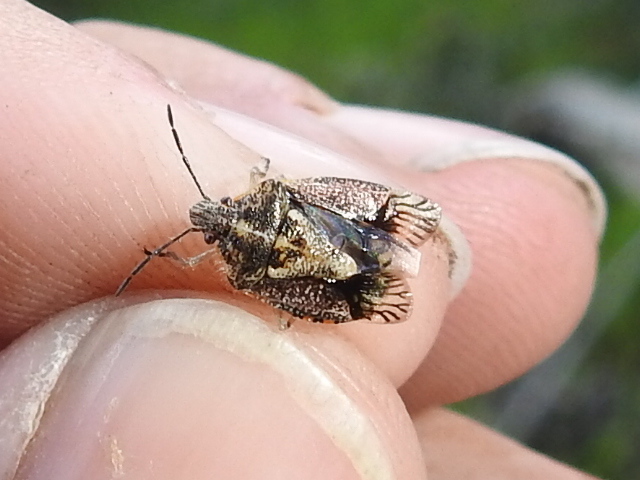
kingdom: Animalia
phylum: Arthropoda
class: Insecta
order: Hemiptera
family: Pentatomidae
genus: Agonoscelis
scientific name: Agonoscelis puberula
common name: African cluster bug
